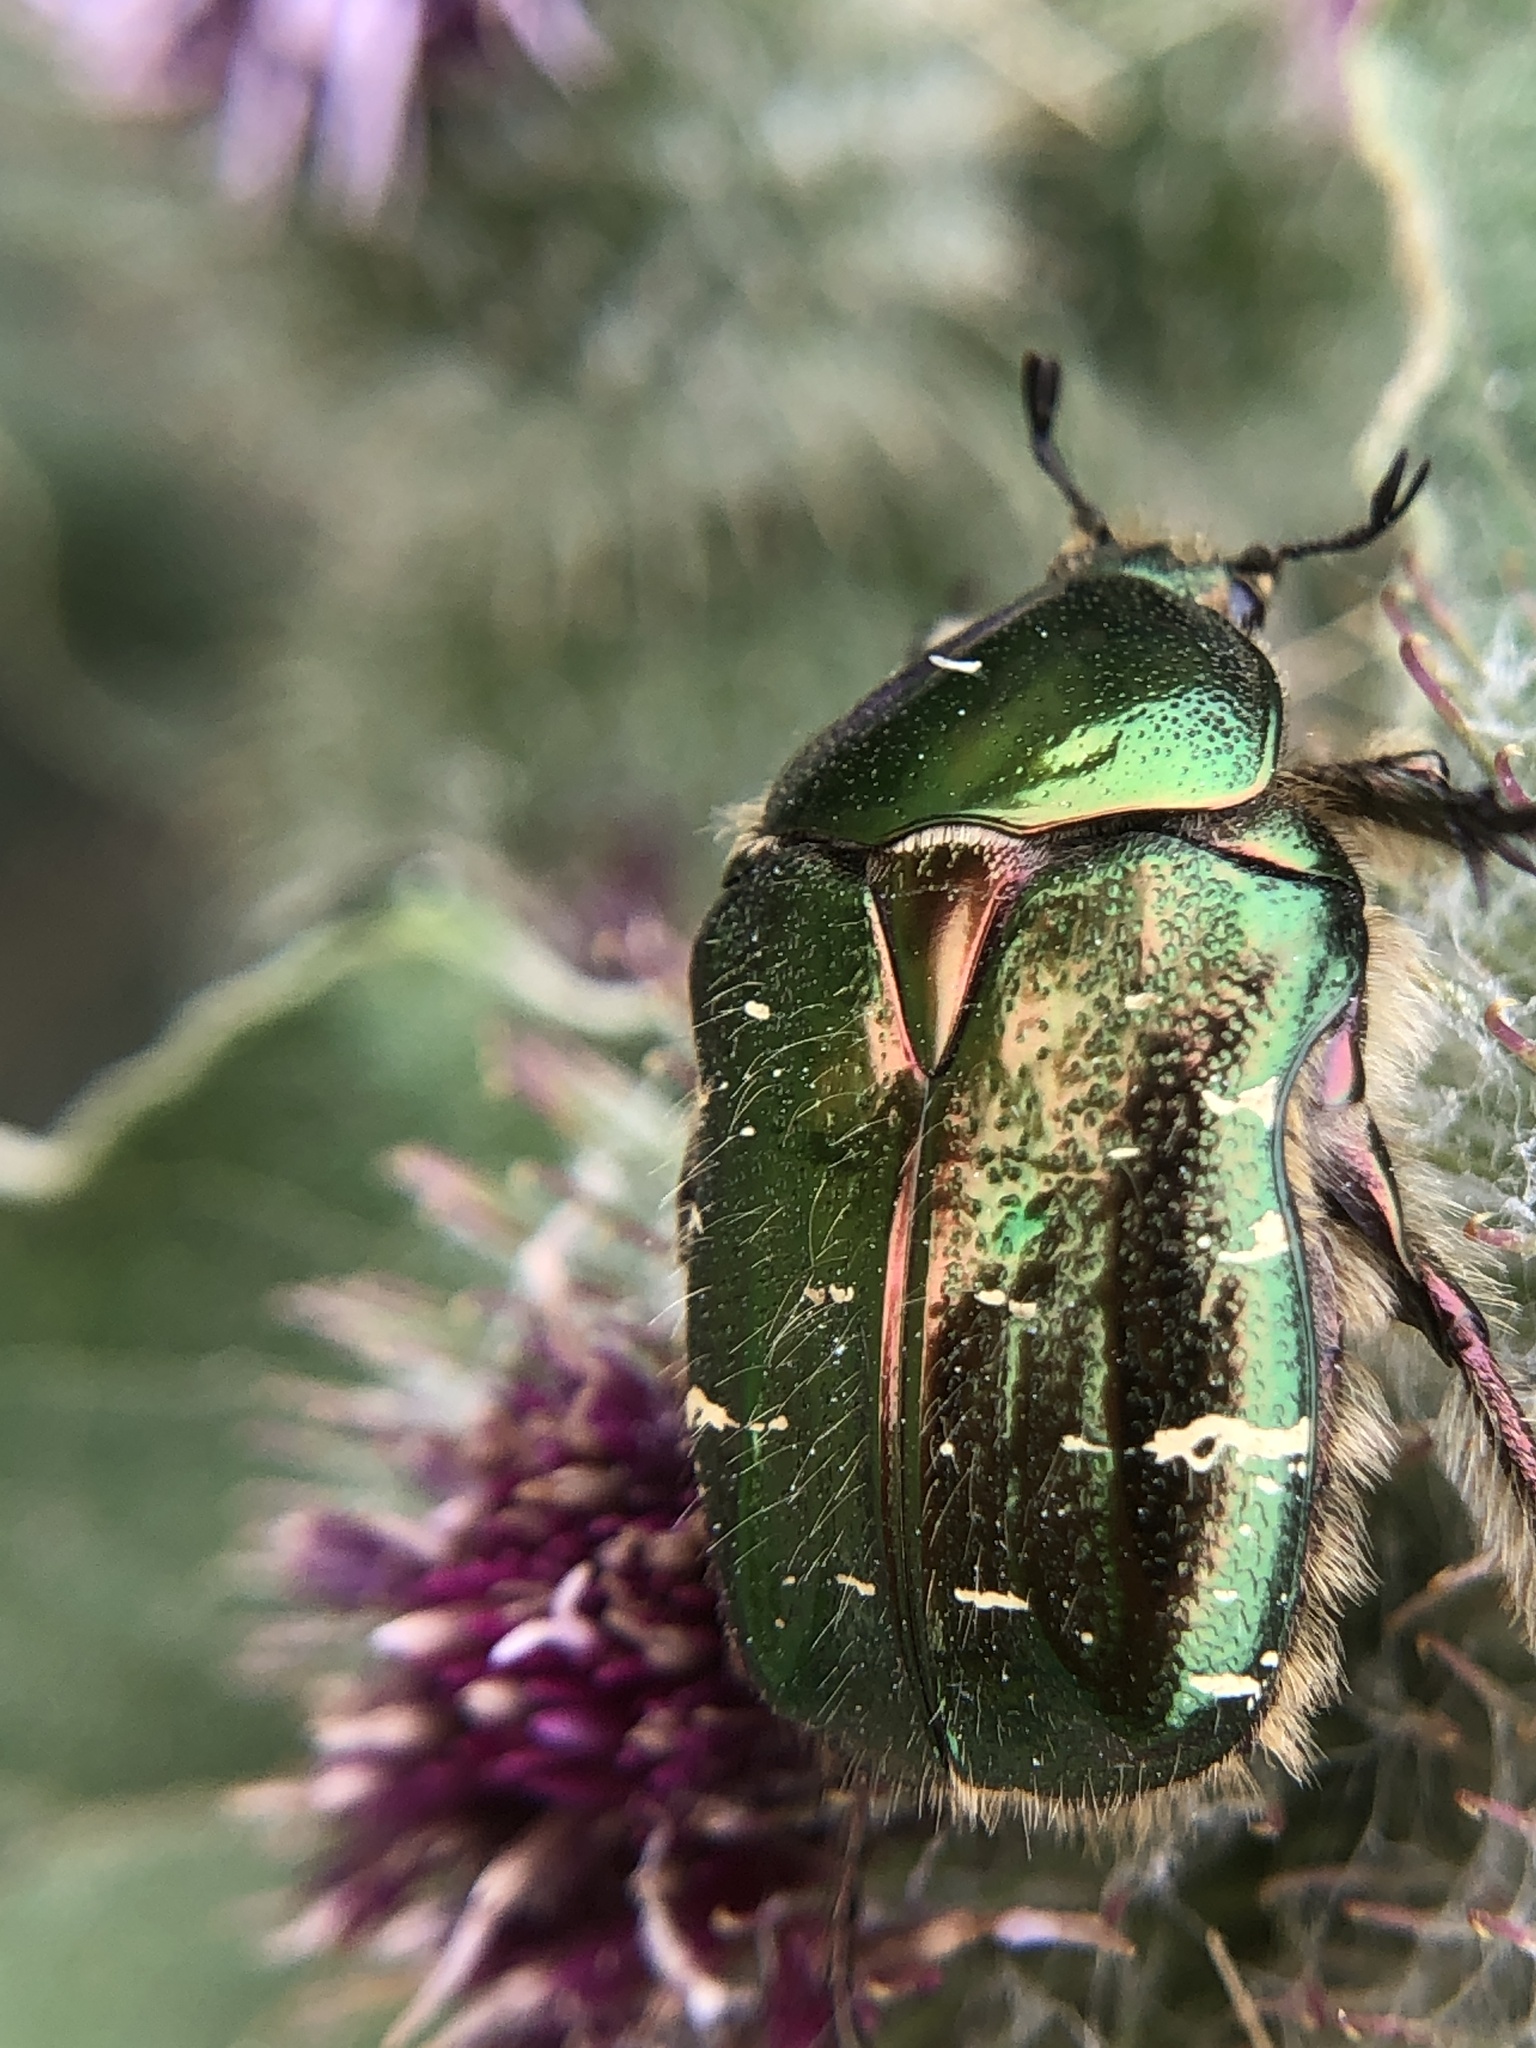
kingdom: Animalia
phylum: Arthropoda
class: Insecta
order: Coleoptera
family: Scarabaeidae
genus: Cetonia
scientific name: Cetonia aurata
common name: Rose chafer
